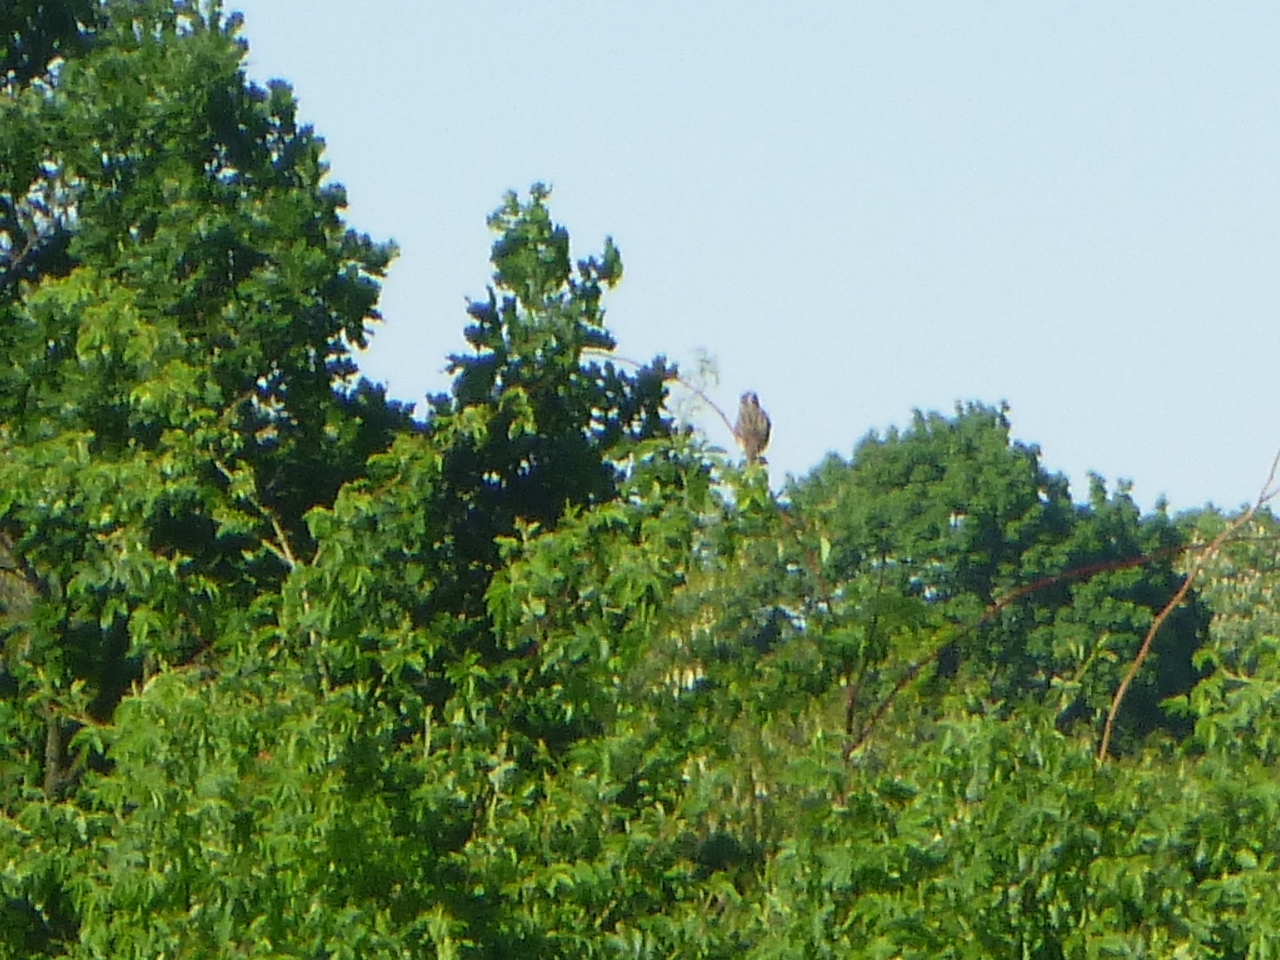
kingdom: Animalia
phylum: Chordata
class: Aves
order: Passeriformes
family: Muscicapidae
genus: Saxicola
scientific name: Saxicola rubetra
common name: Whinchat
